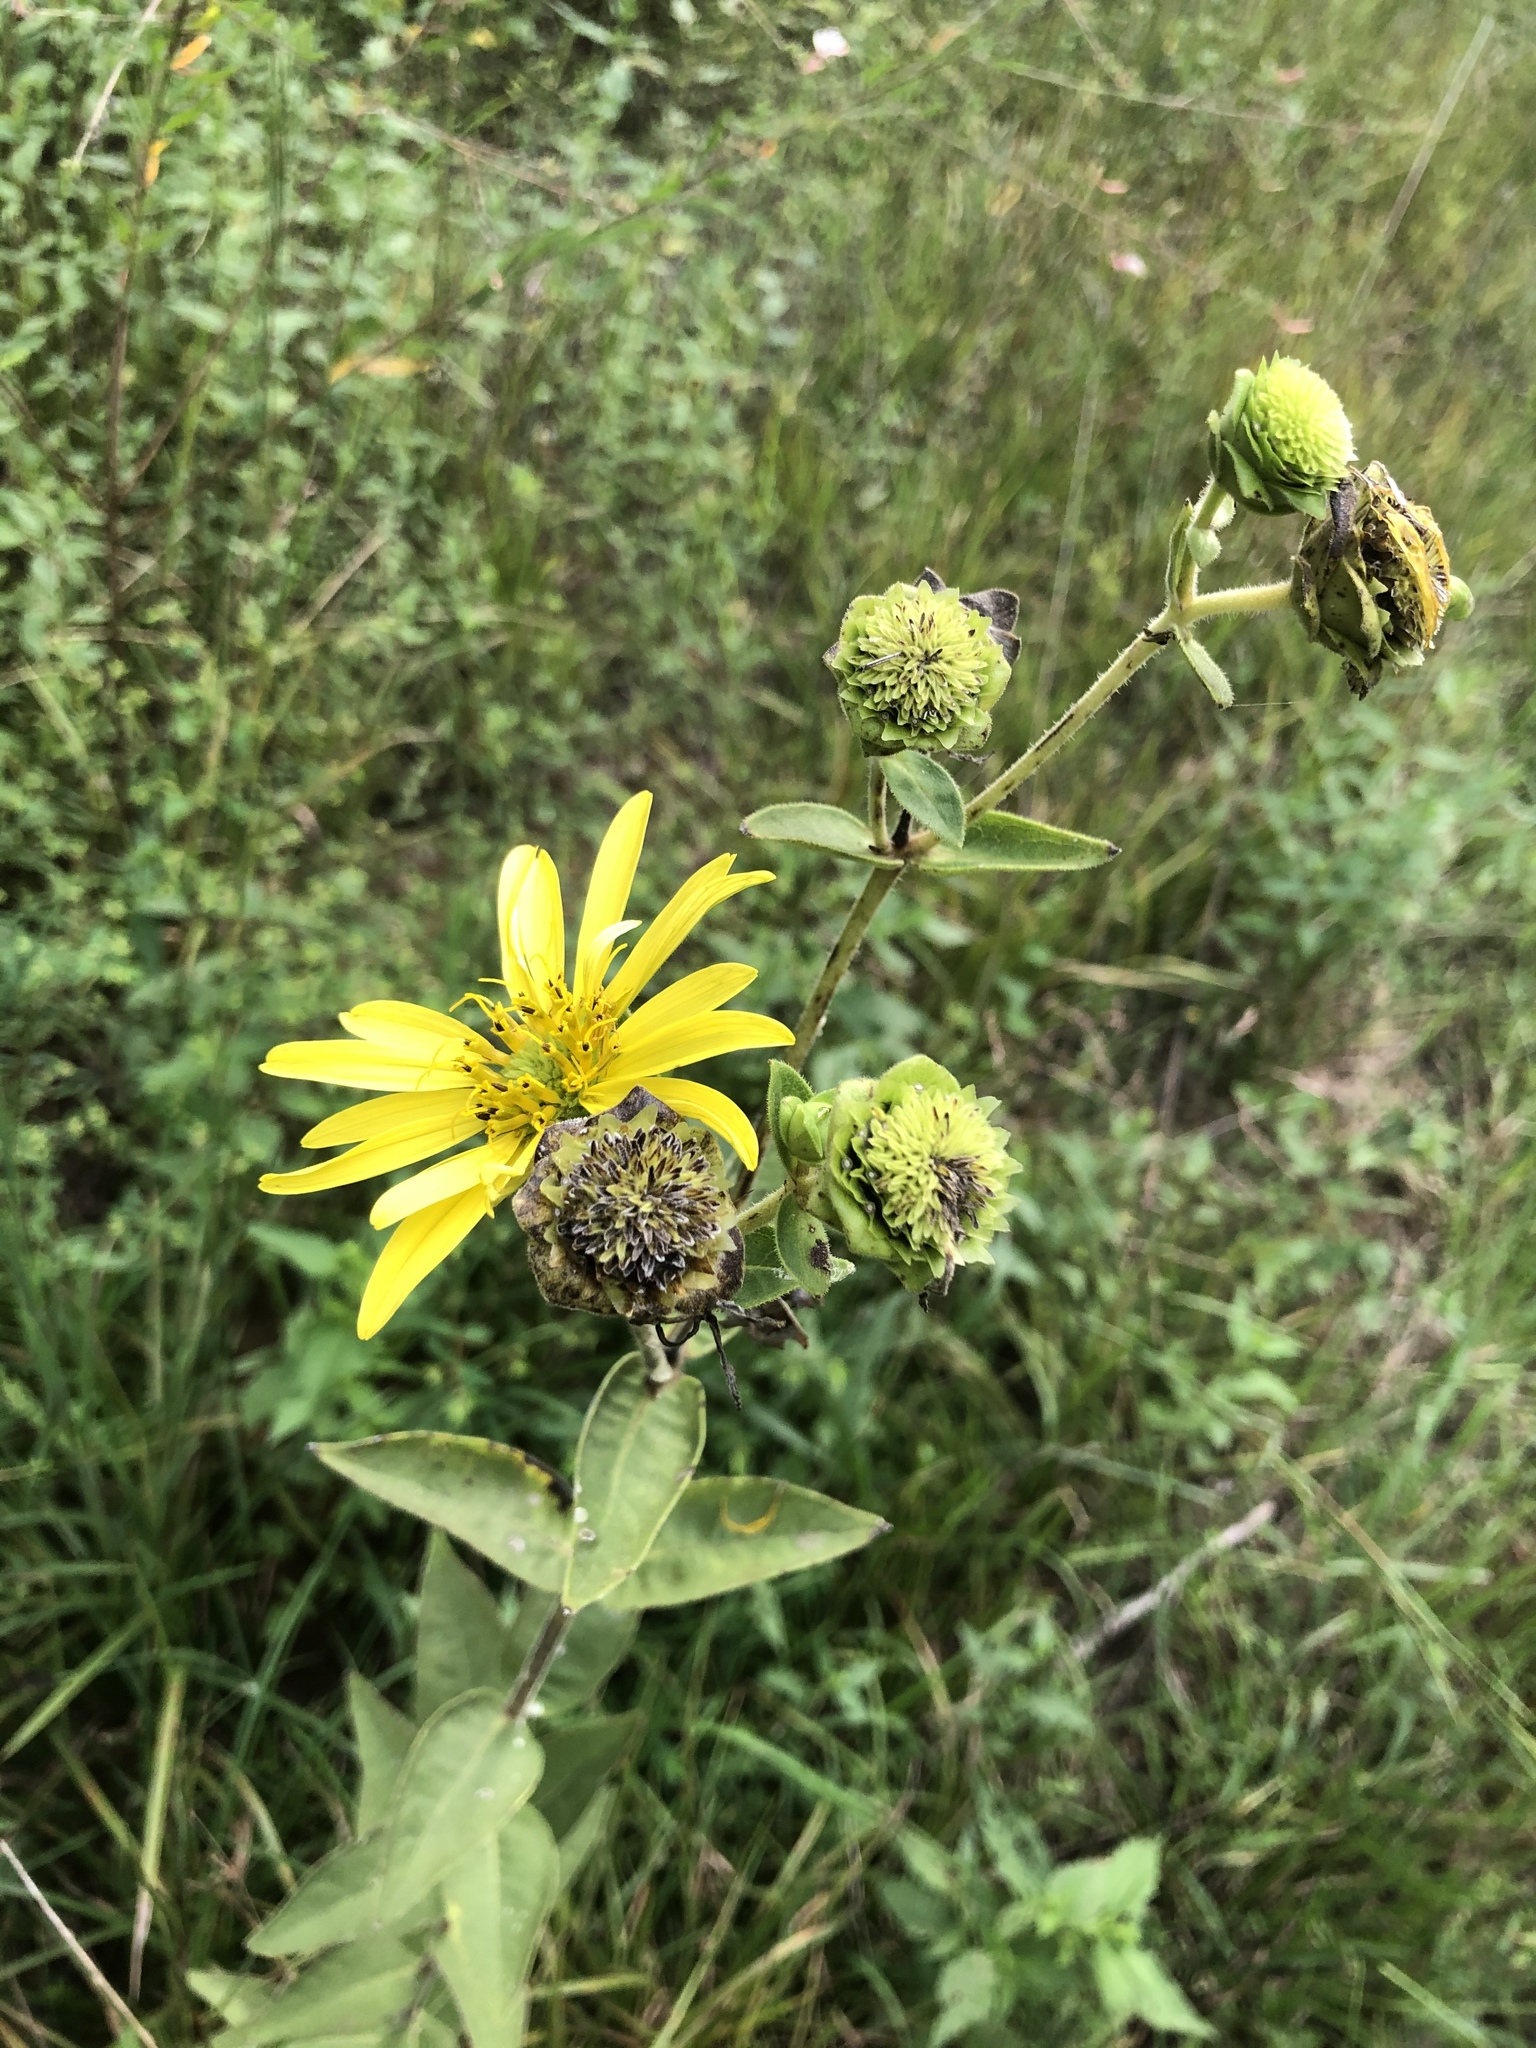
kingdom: Plantae
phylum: Tracheophyta
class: Magnoliopsida
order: Asterales
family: Asteraceae
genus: Silphium
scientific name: Silphium integrifolium
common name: Whole-leaf rosinweed
